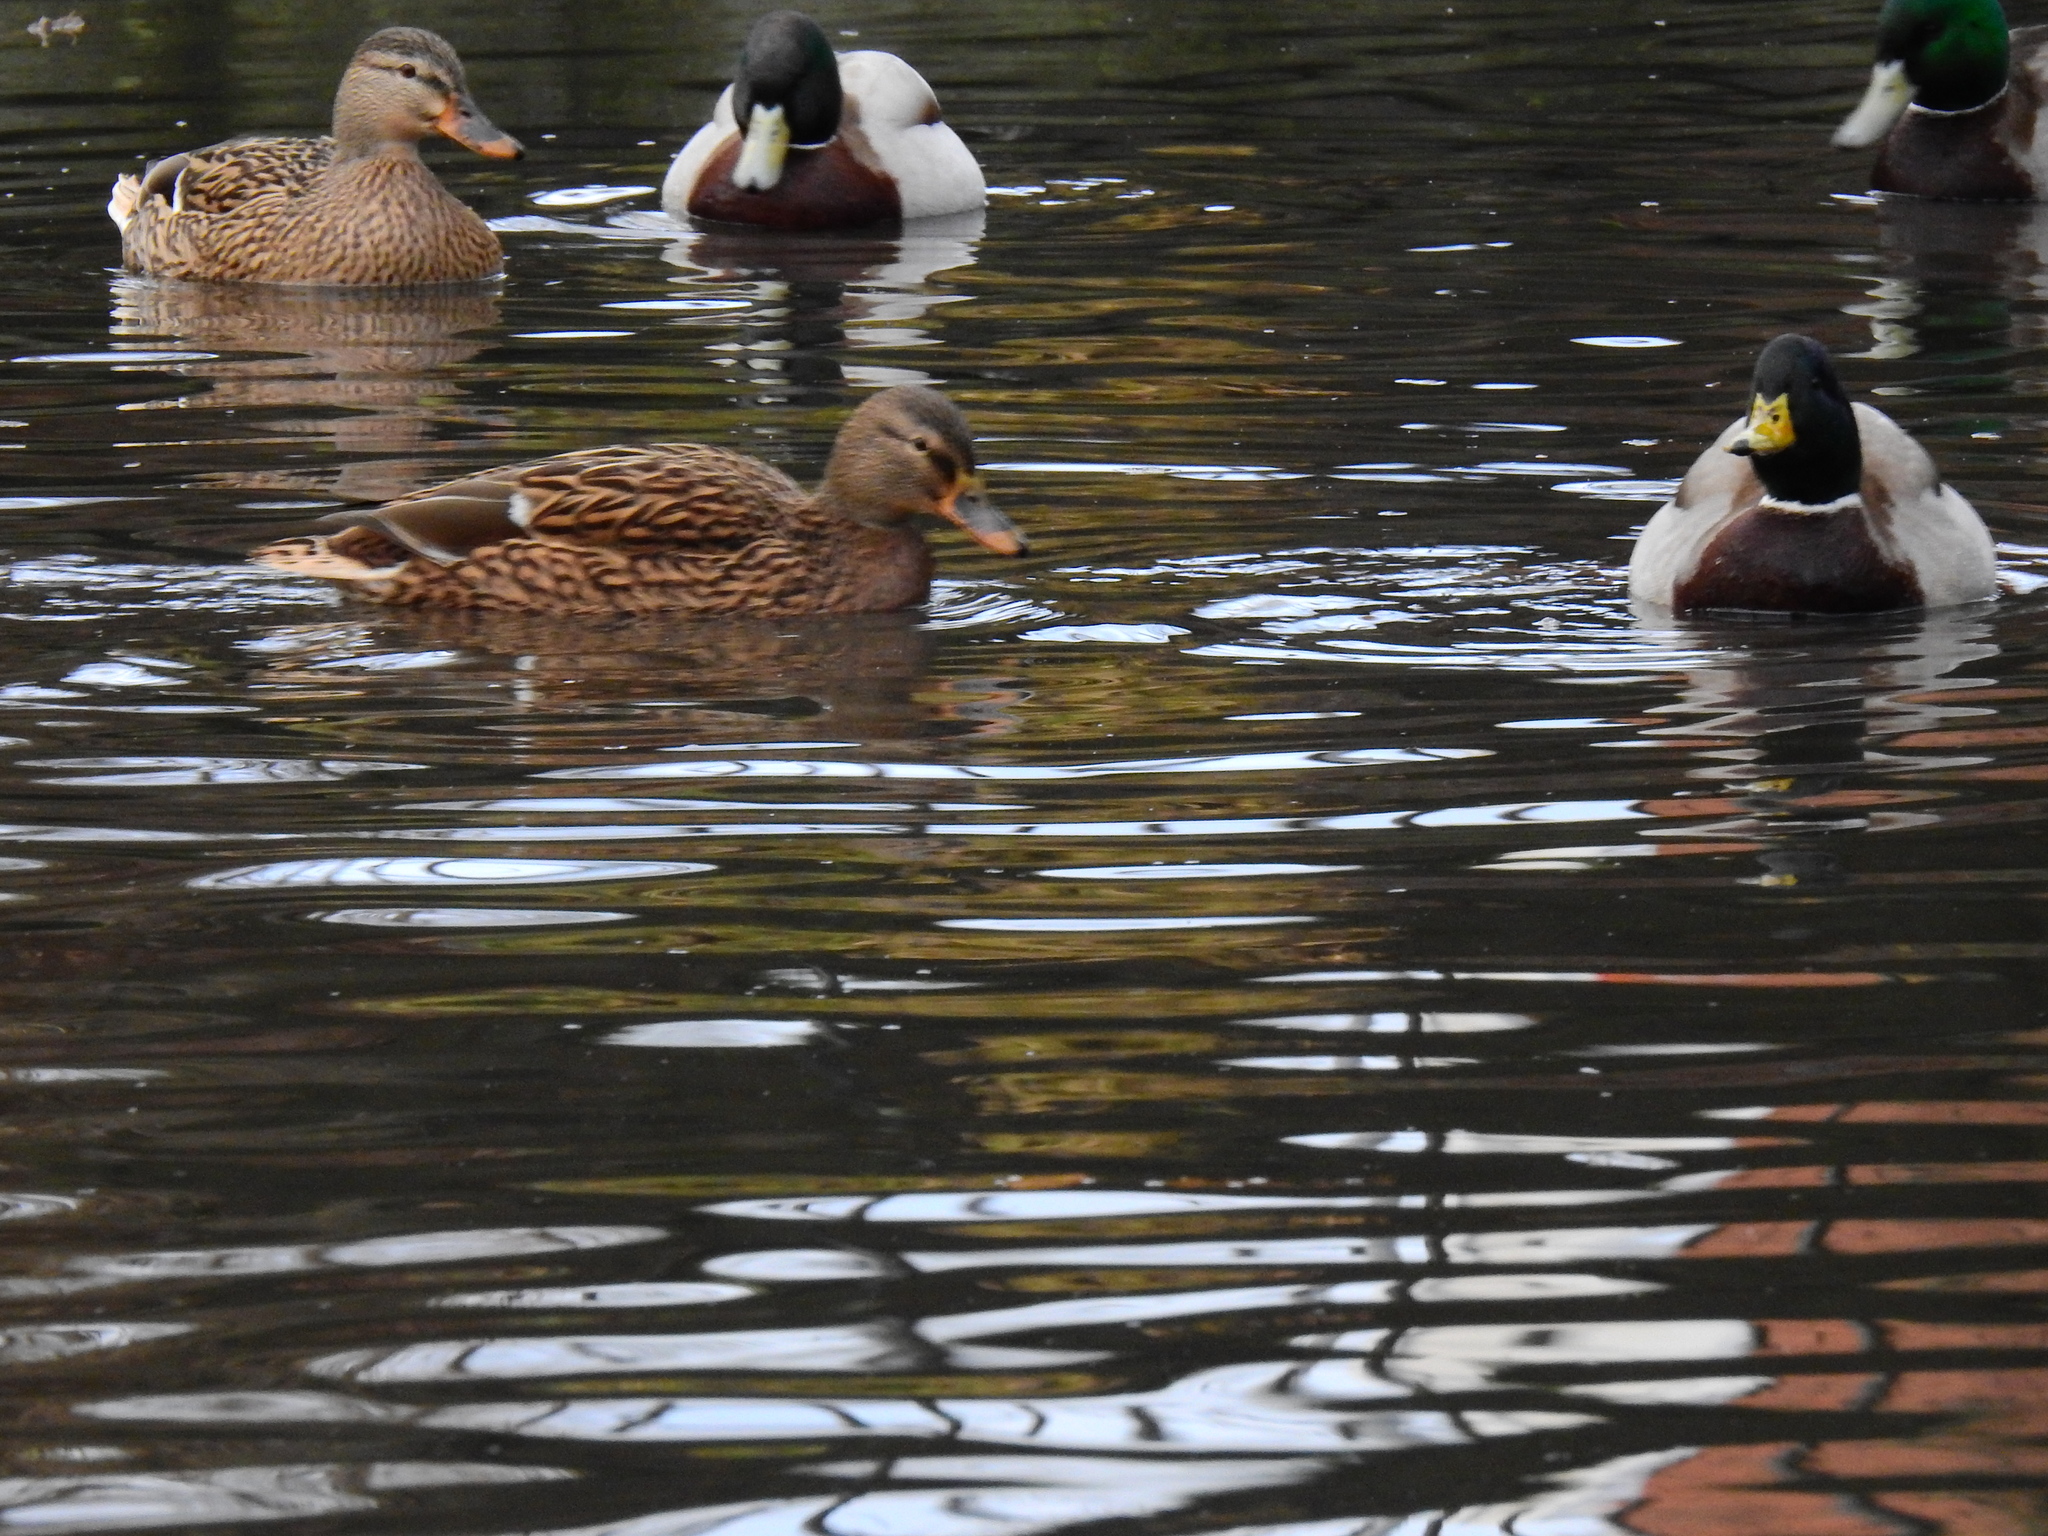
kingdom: Animalia
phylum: Chordata
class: Aves
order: Anseriformes
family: Anatidae
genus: Anas
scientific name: Anas platyrhynchos
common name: Mallard
